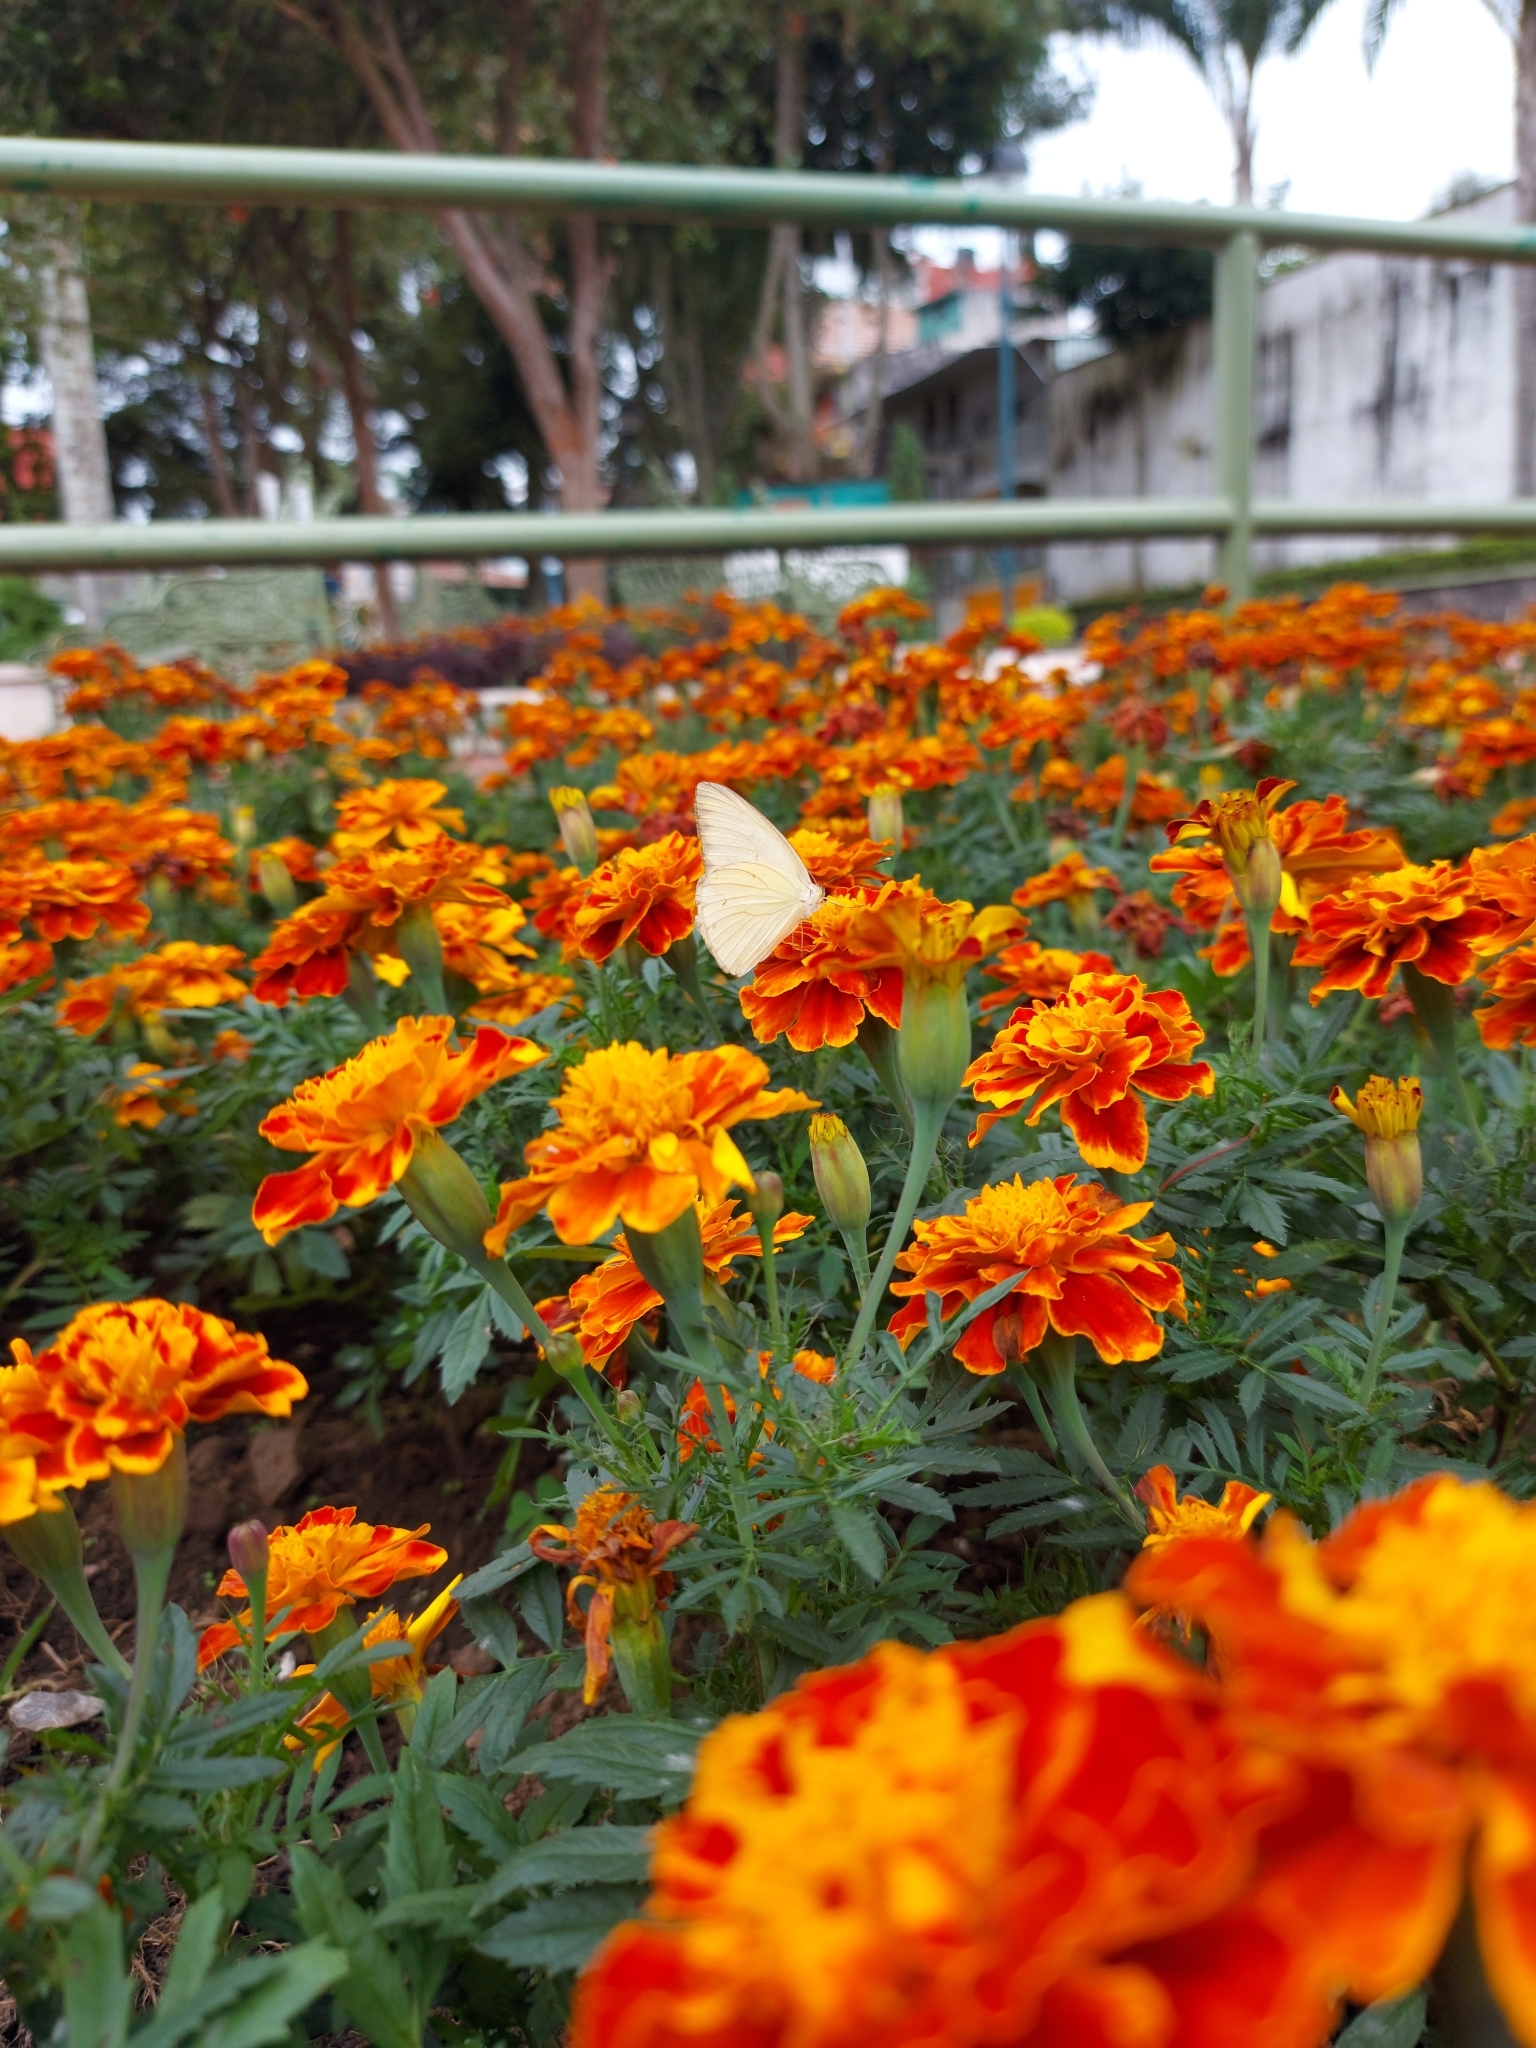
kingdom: Animalia
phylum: Arthropoda
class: Insecta
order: Lepidoptera
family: Pieridae
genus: Ascia
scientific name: Ascia monuste
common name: Great southern white
